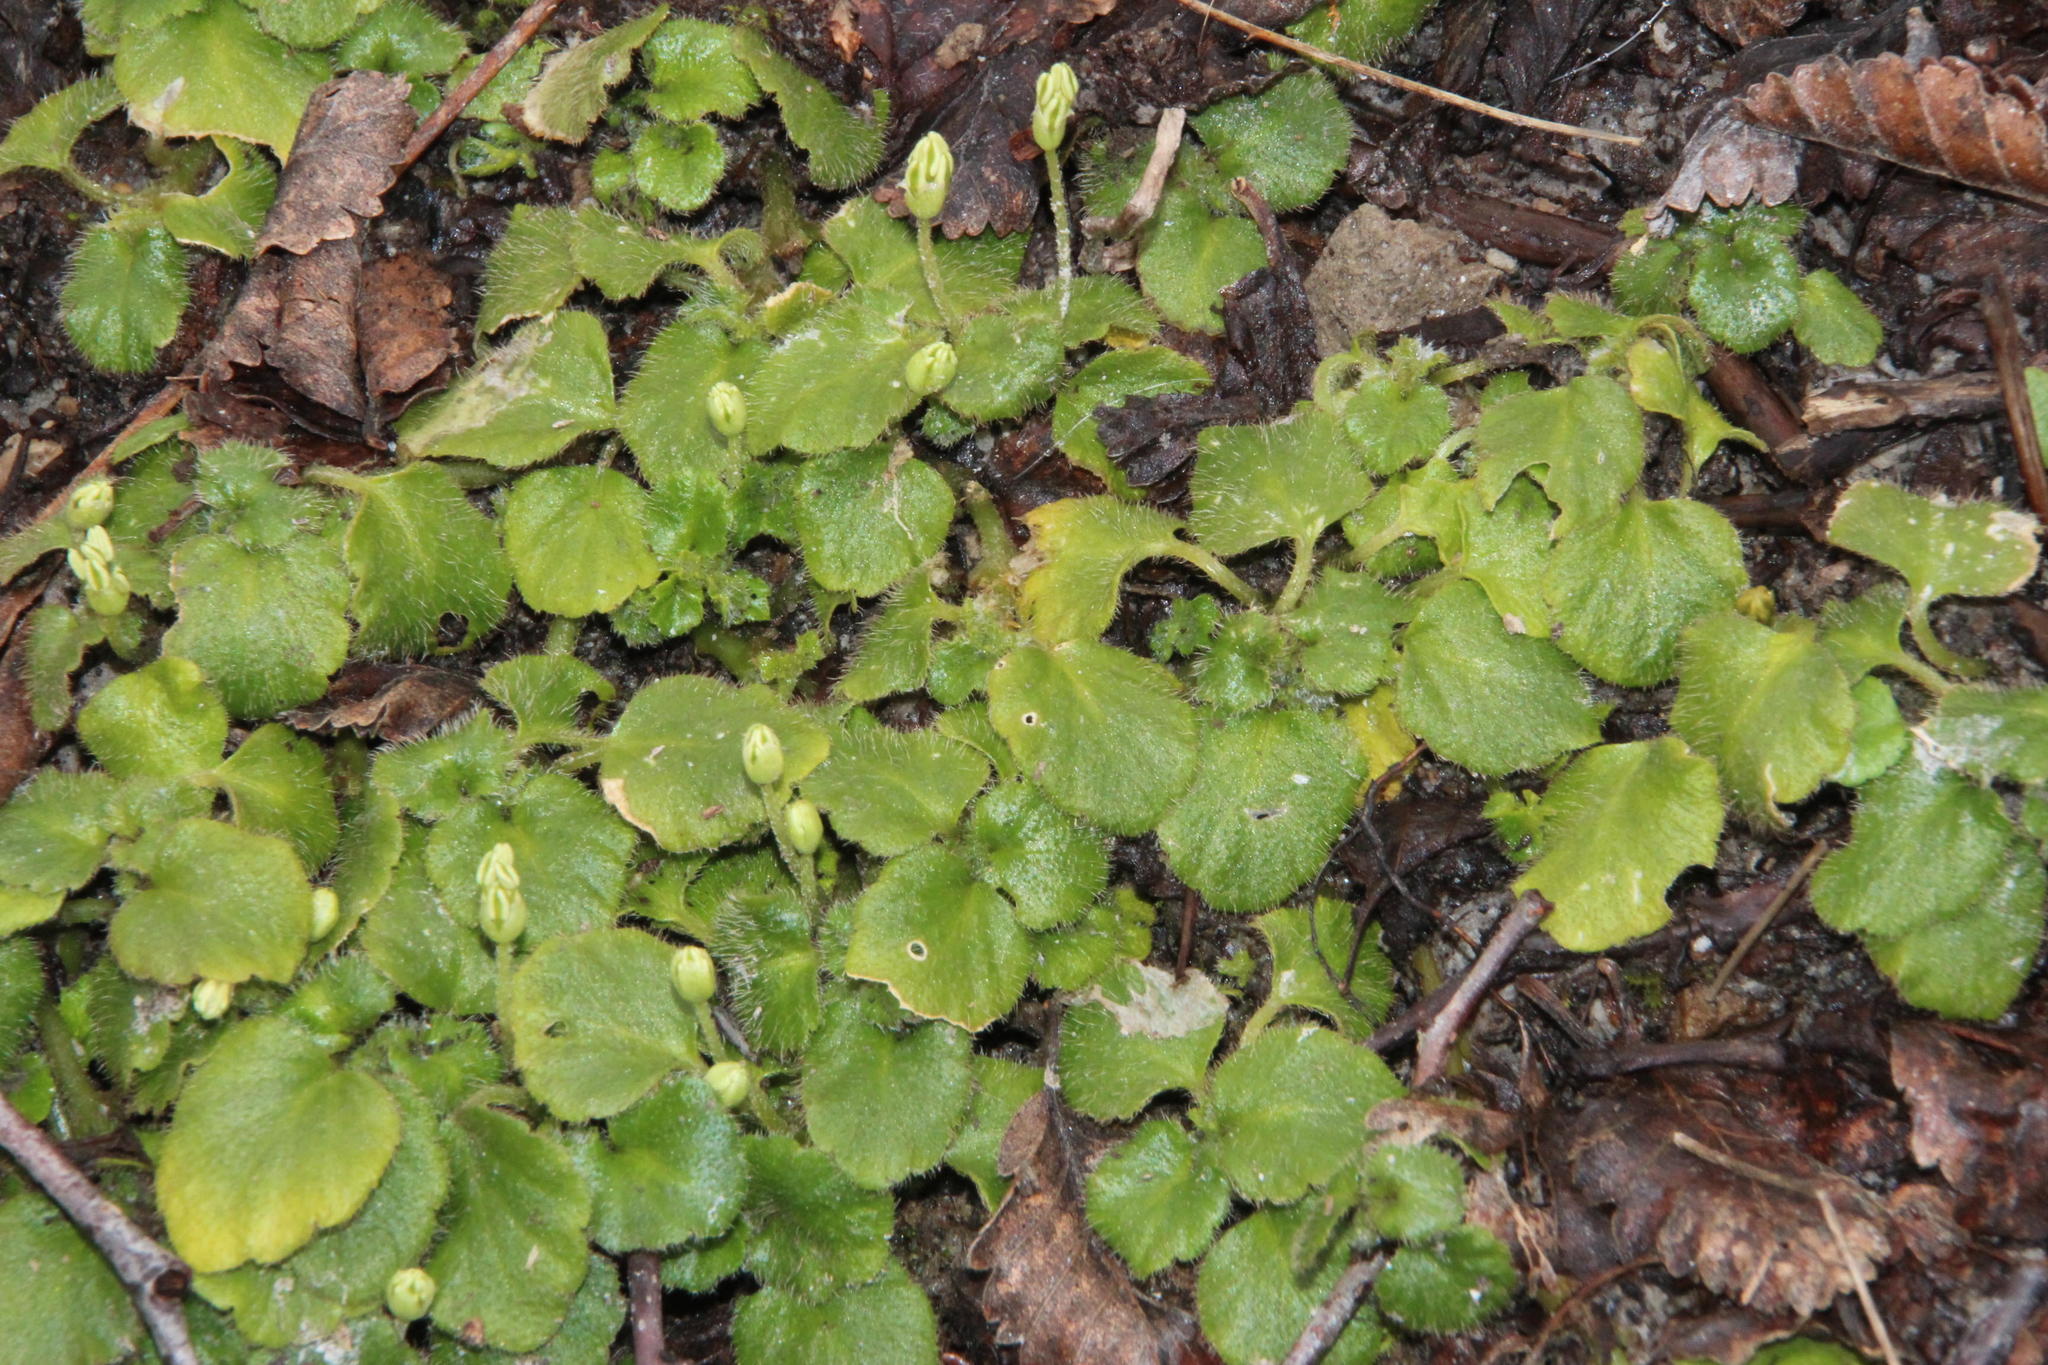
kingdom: Plantae
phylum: Tracheophyta
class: Magnoliopsida
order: Malpighiales
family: Euphorbiaceae
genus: Dysopsis
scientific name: Dysopsis glechomoides
